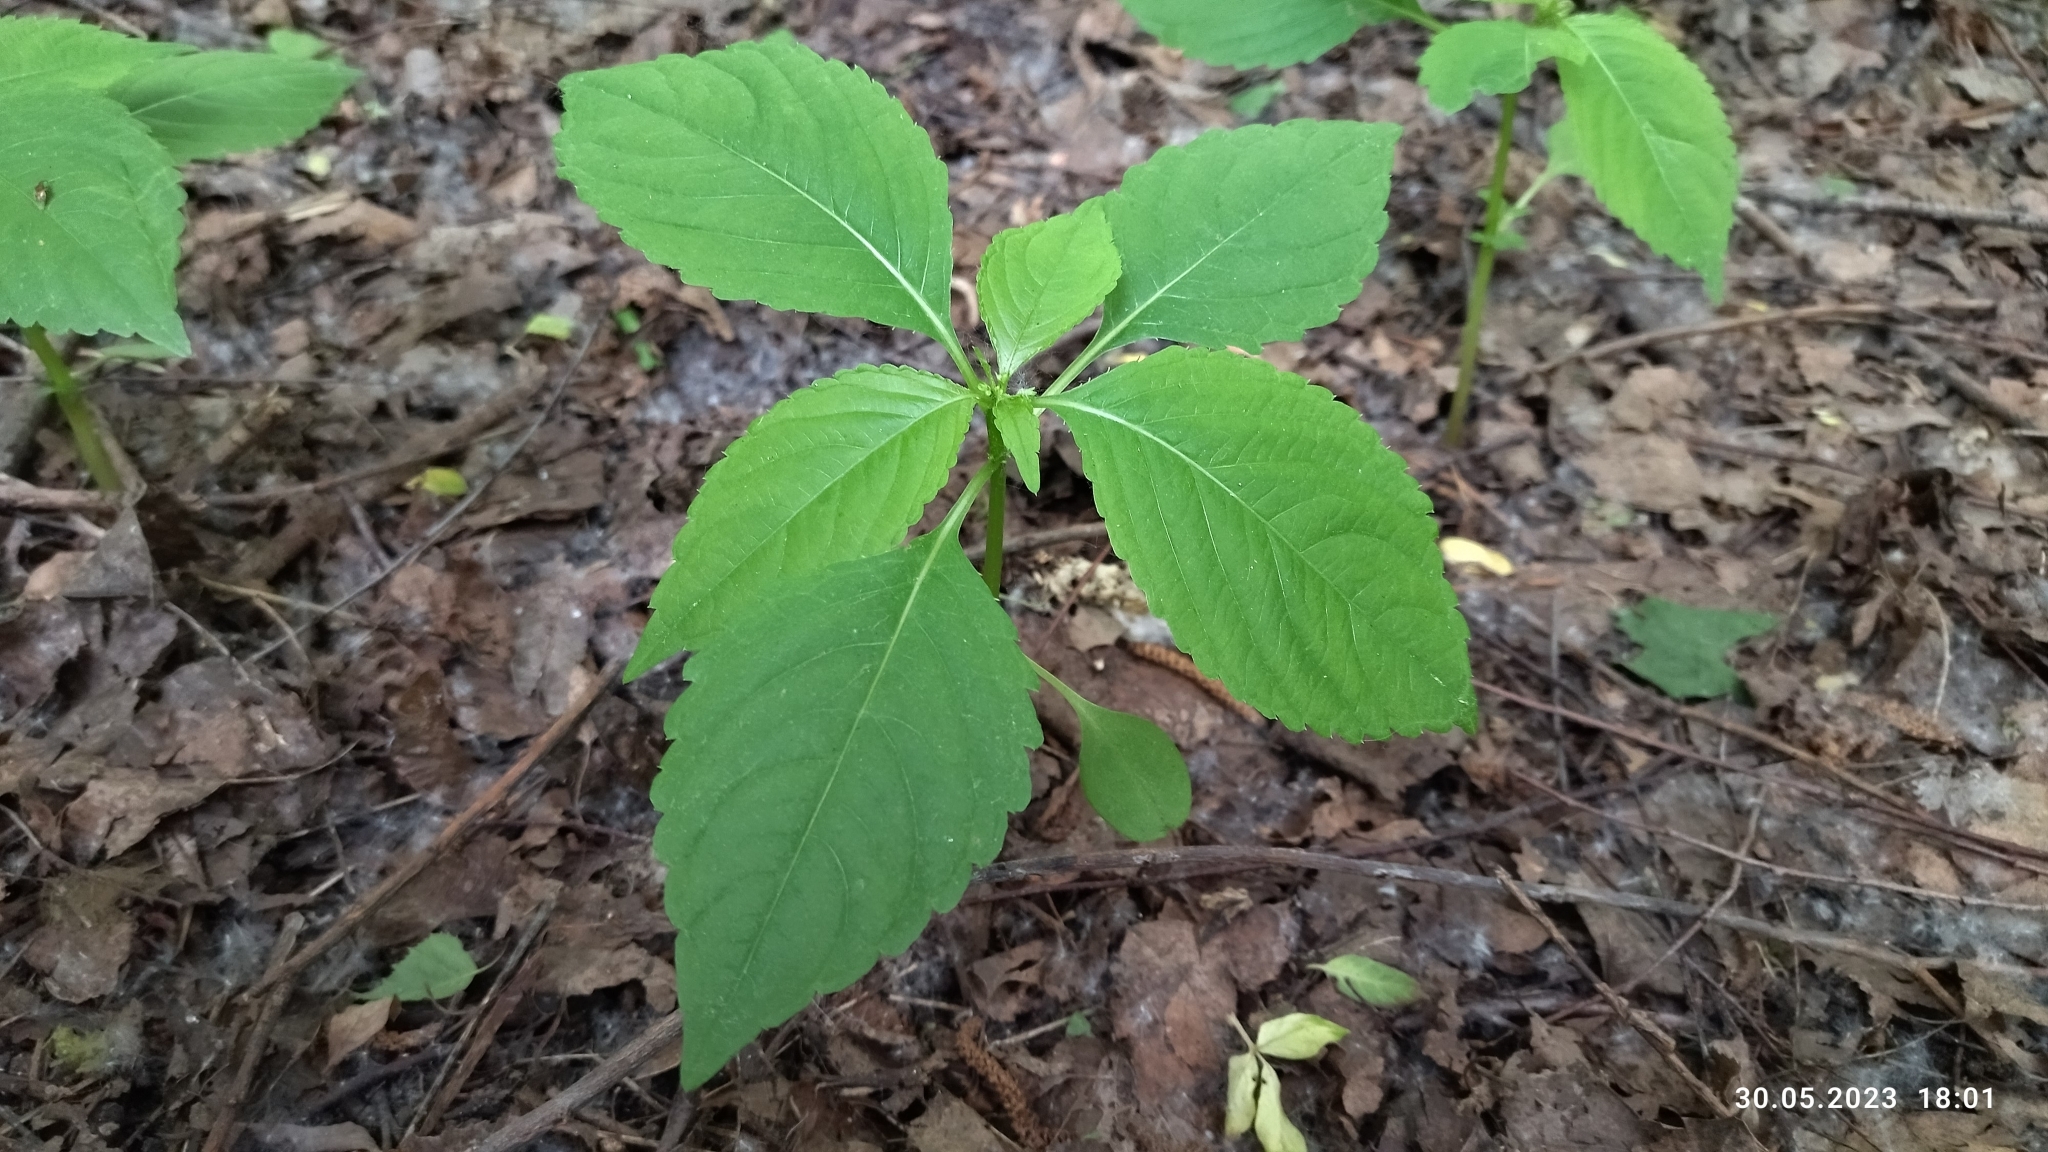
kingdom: Plantae
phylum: Tracheophyta
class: Magnoliopsida
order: Ericales
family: Balsaminaceae
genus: Impatiens
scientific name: Impatiens parviflora
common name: Small balsam
